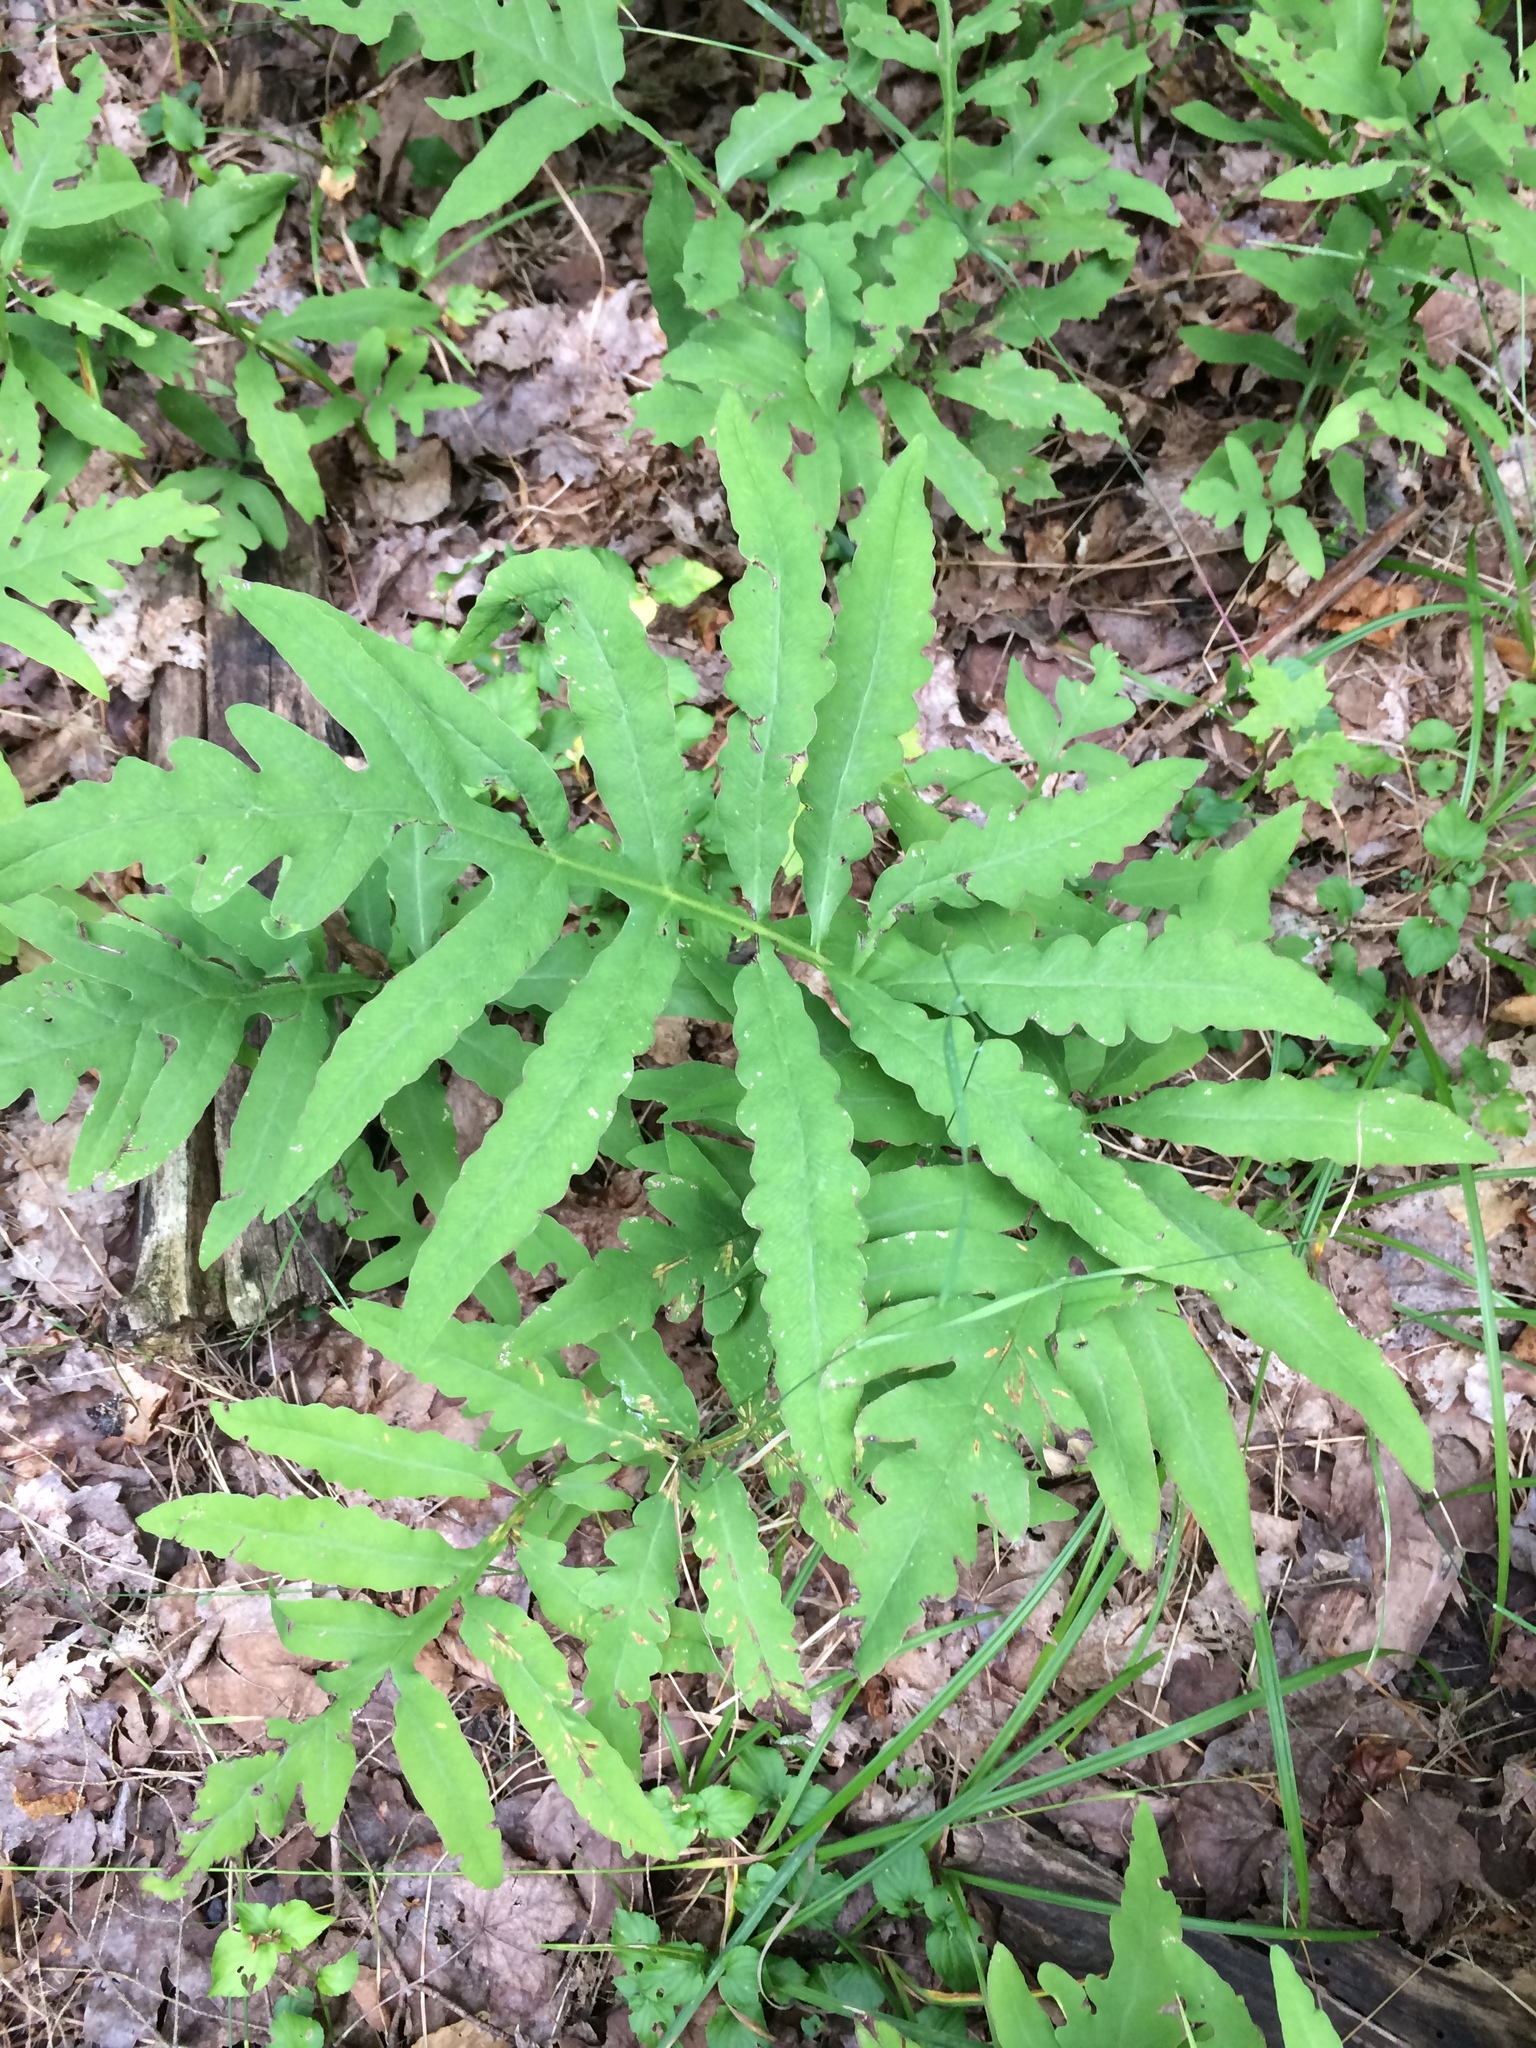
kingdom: Plantae
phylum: Tracheophyta
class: Polypodiopsida
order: Polypodiales
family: Onocleaceae
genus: Onoclea
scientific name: Onoclea sensibilis
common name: Sensitive fern
